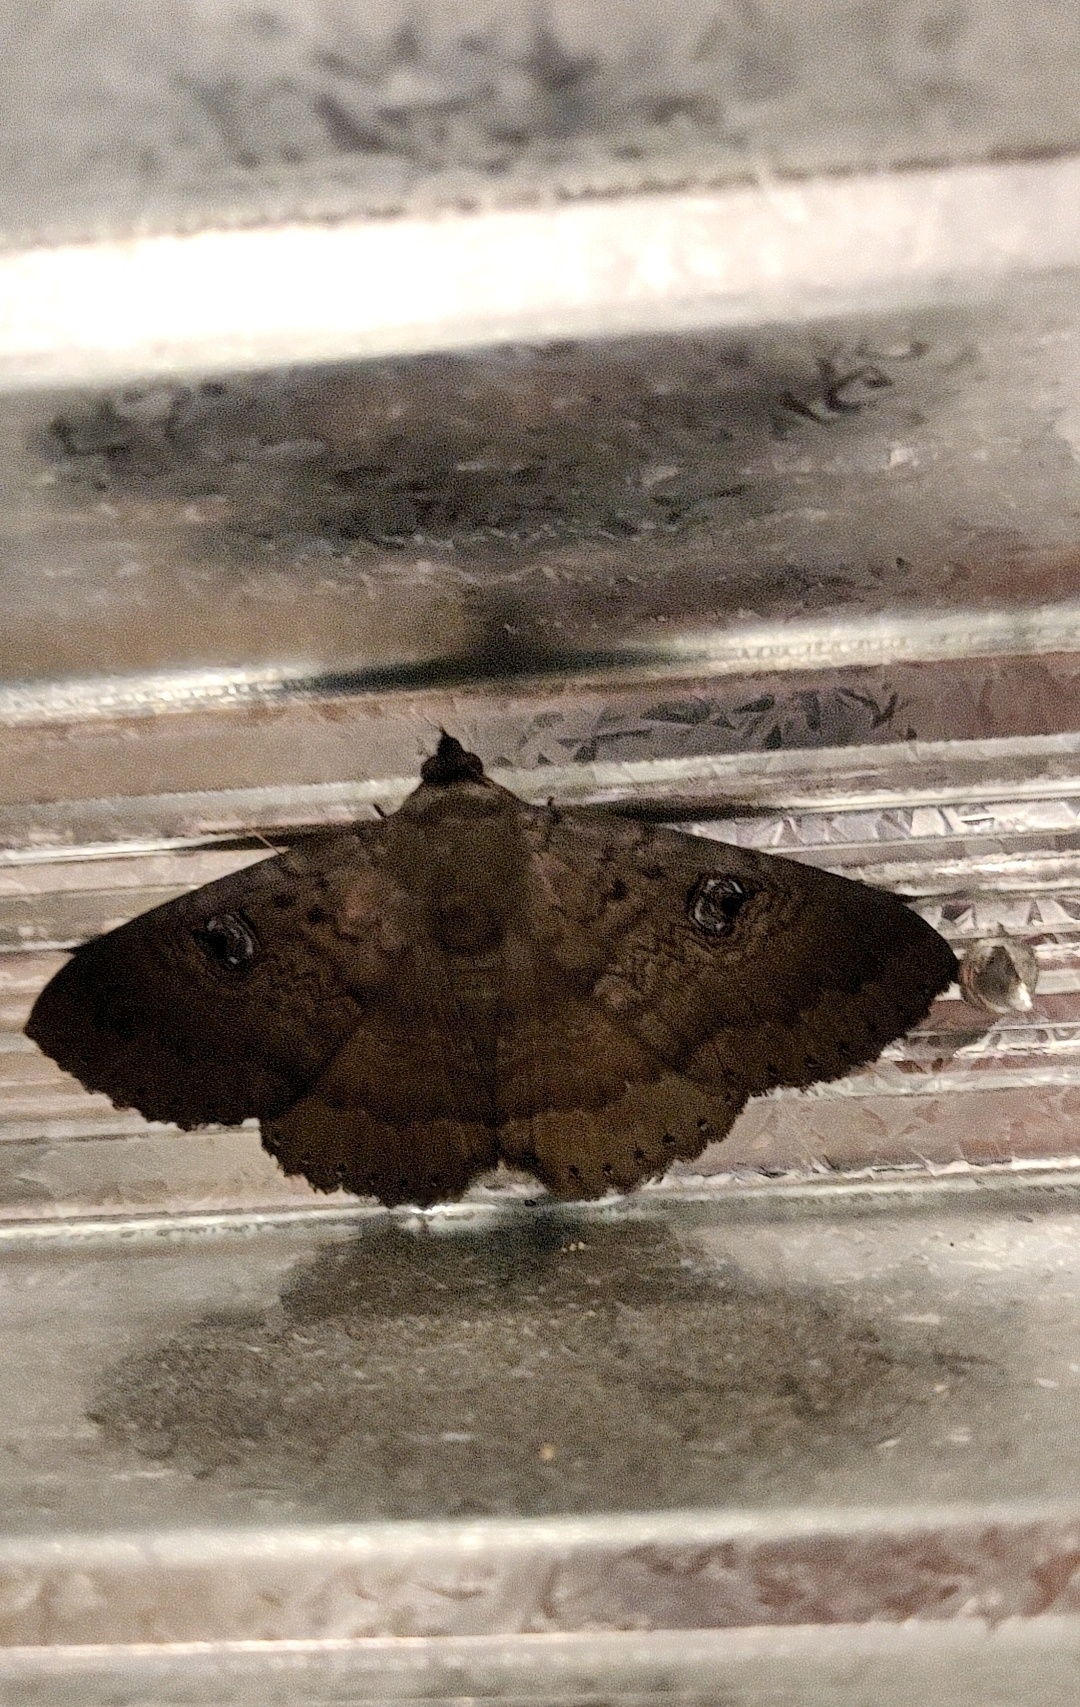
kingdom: Animalia
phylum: Arthropoda
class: Insecta
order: Lepidoptera
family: Erebidae
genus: Dasypodia
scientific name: Dasypodia cymatodes
